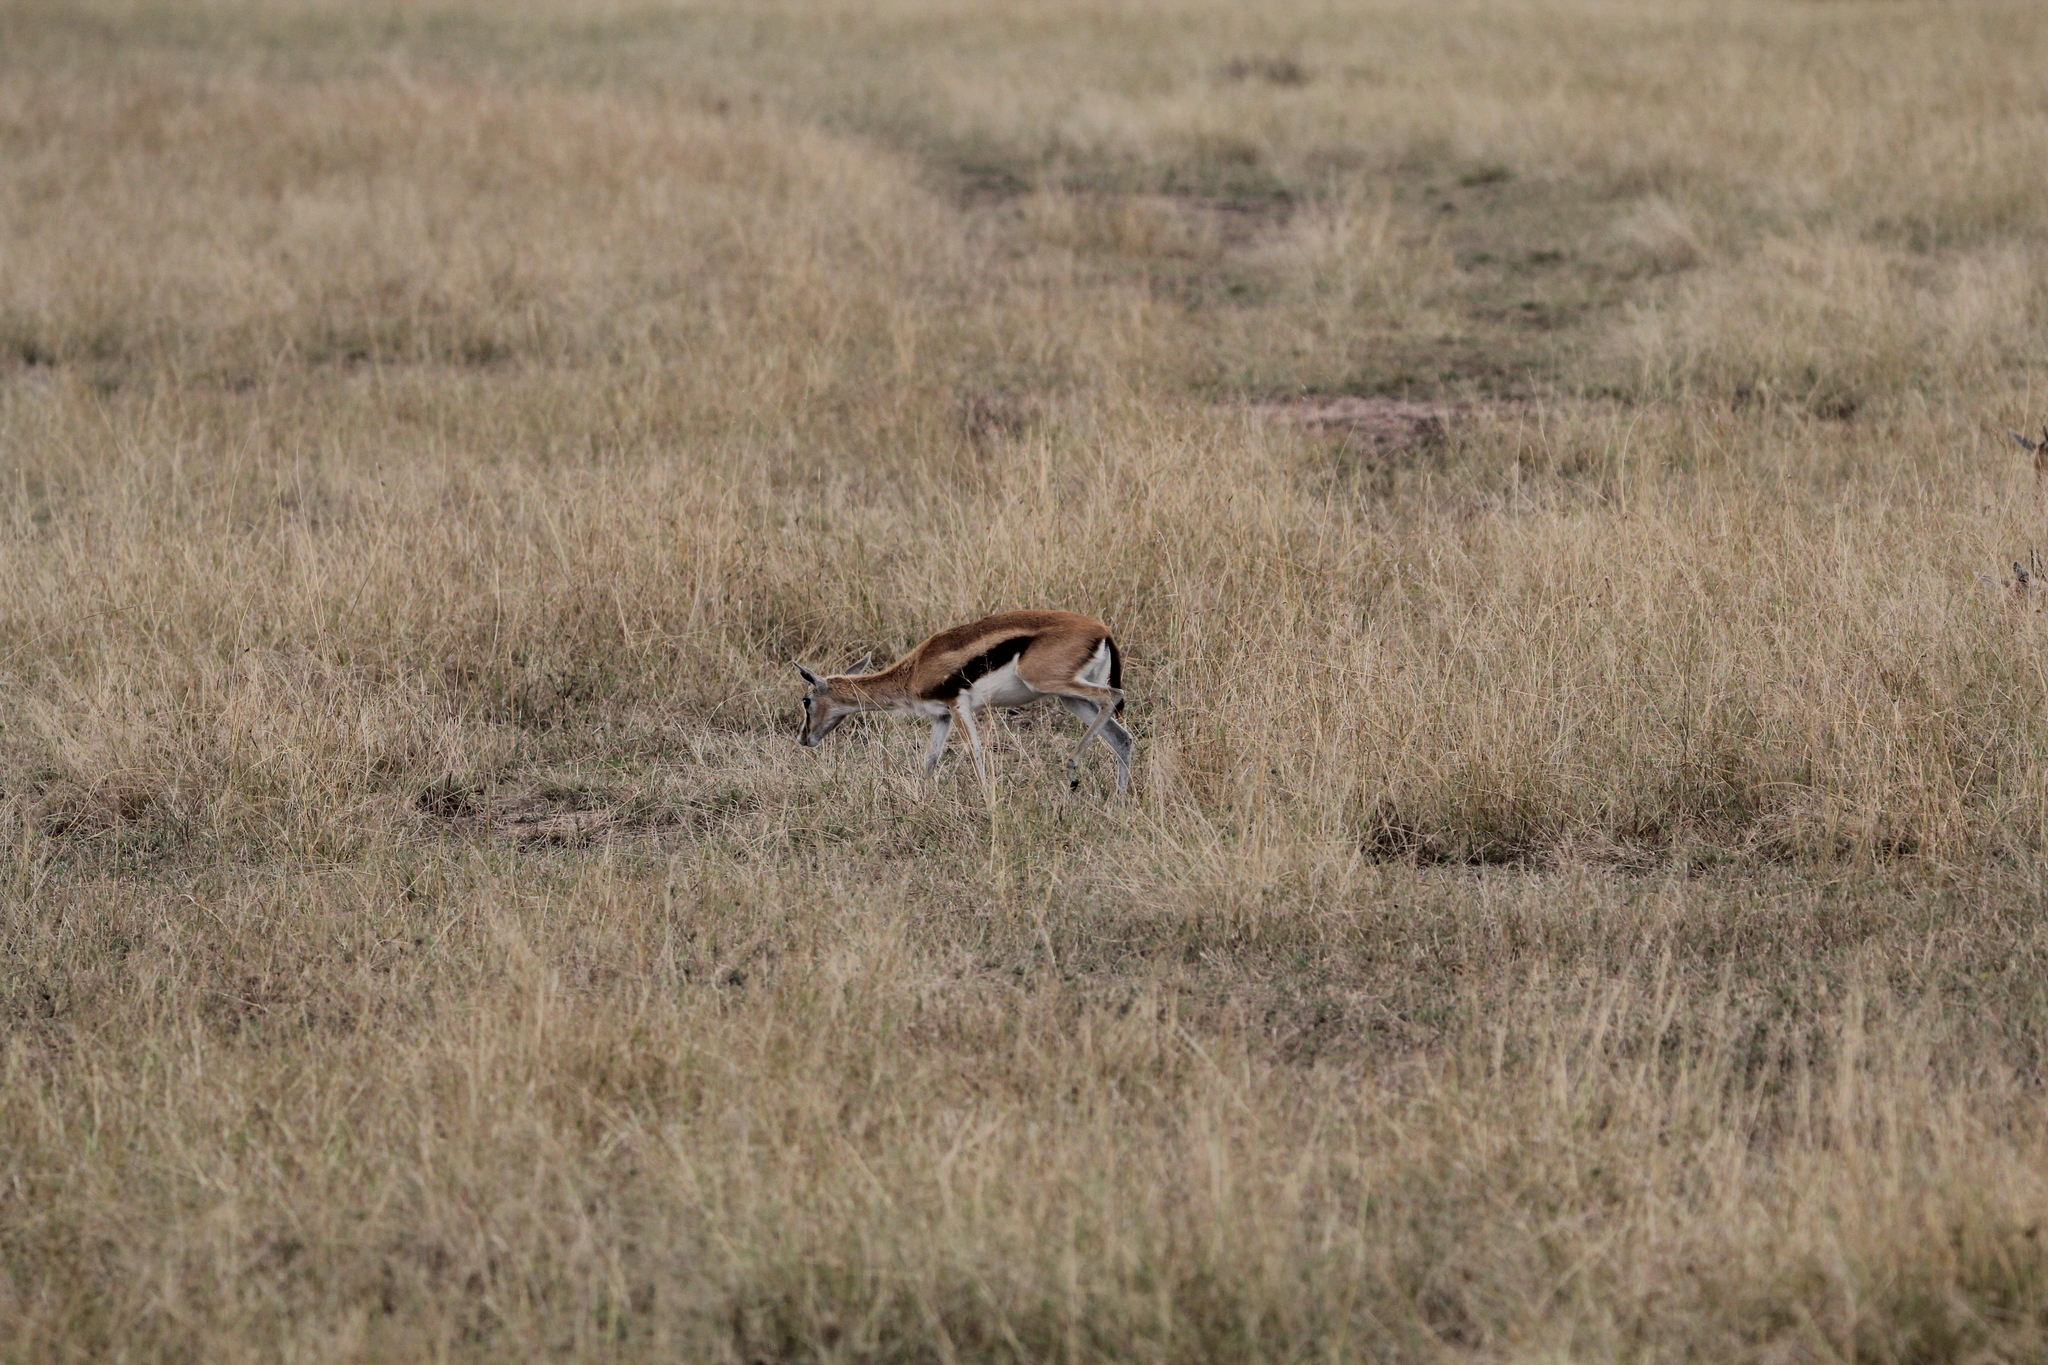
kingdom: Animalia
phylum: Chordata
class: Mammalia
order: Artiodactyla
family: Bovidae
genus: Eudorcas
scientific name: Eudorcas thomsonii
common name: Thomson's gazelle
